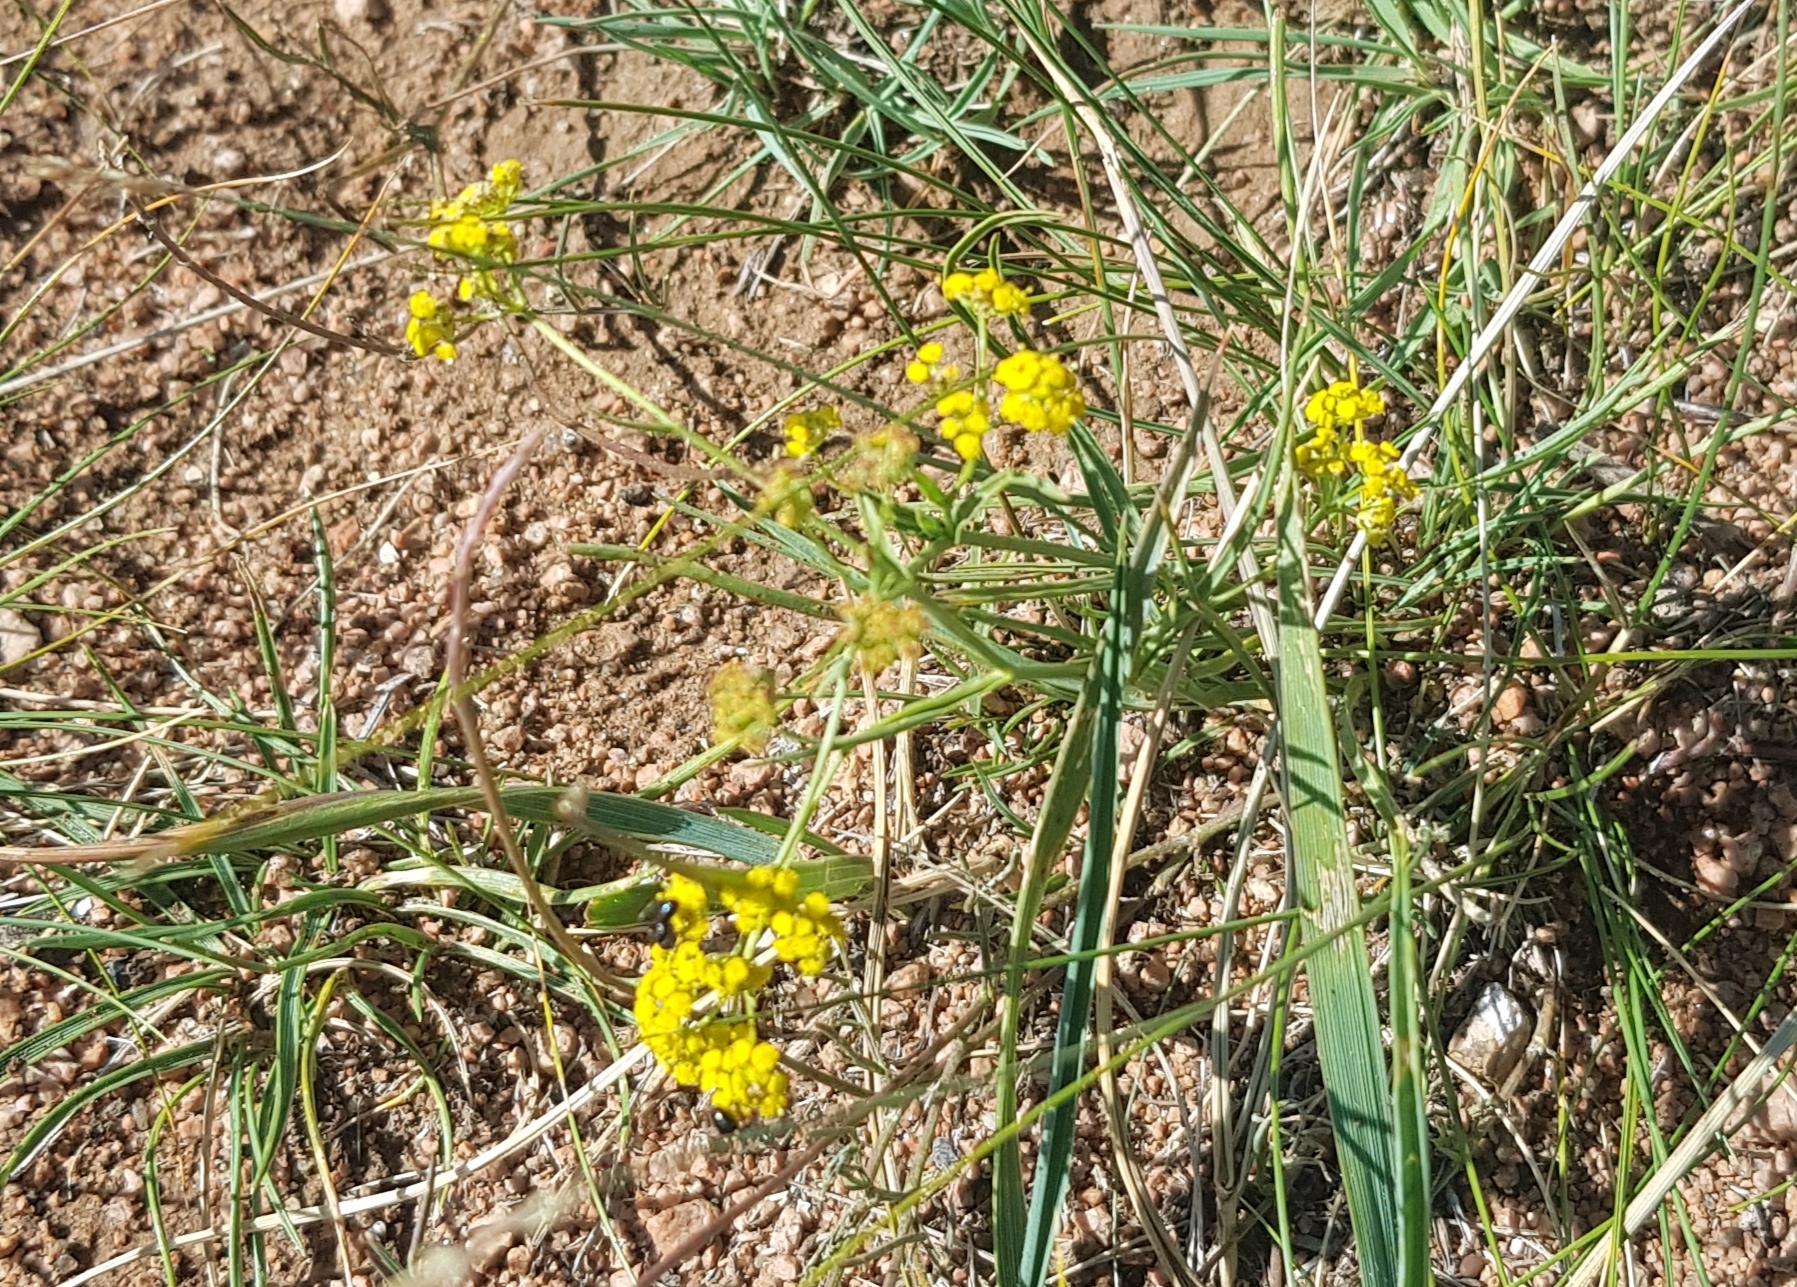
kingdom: Plantae
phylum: Tracheophyta
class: Magnoliopsida
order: Apiales
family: Apiaceae
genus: Bupleurum
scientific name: Bupleurum bicaule
